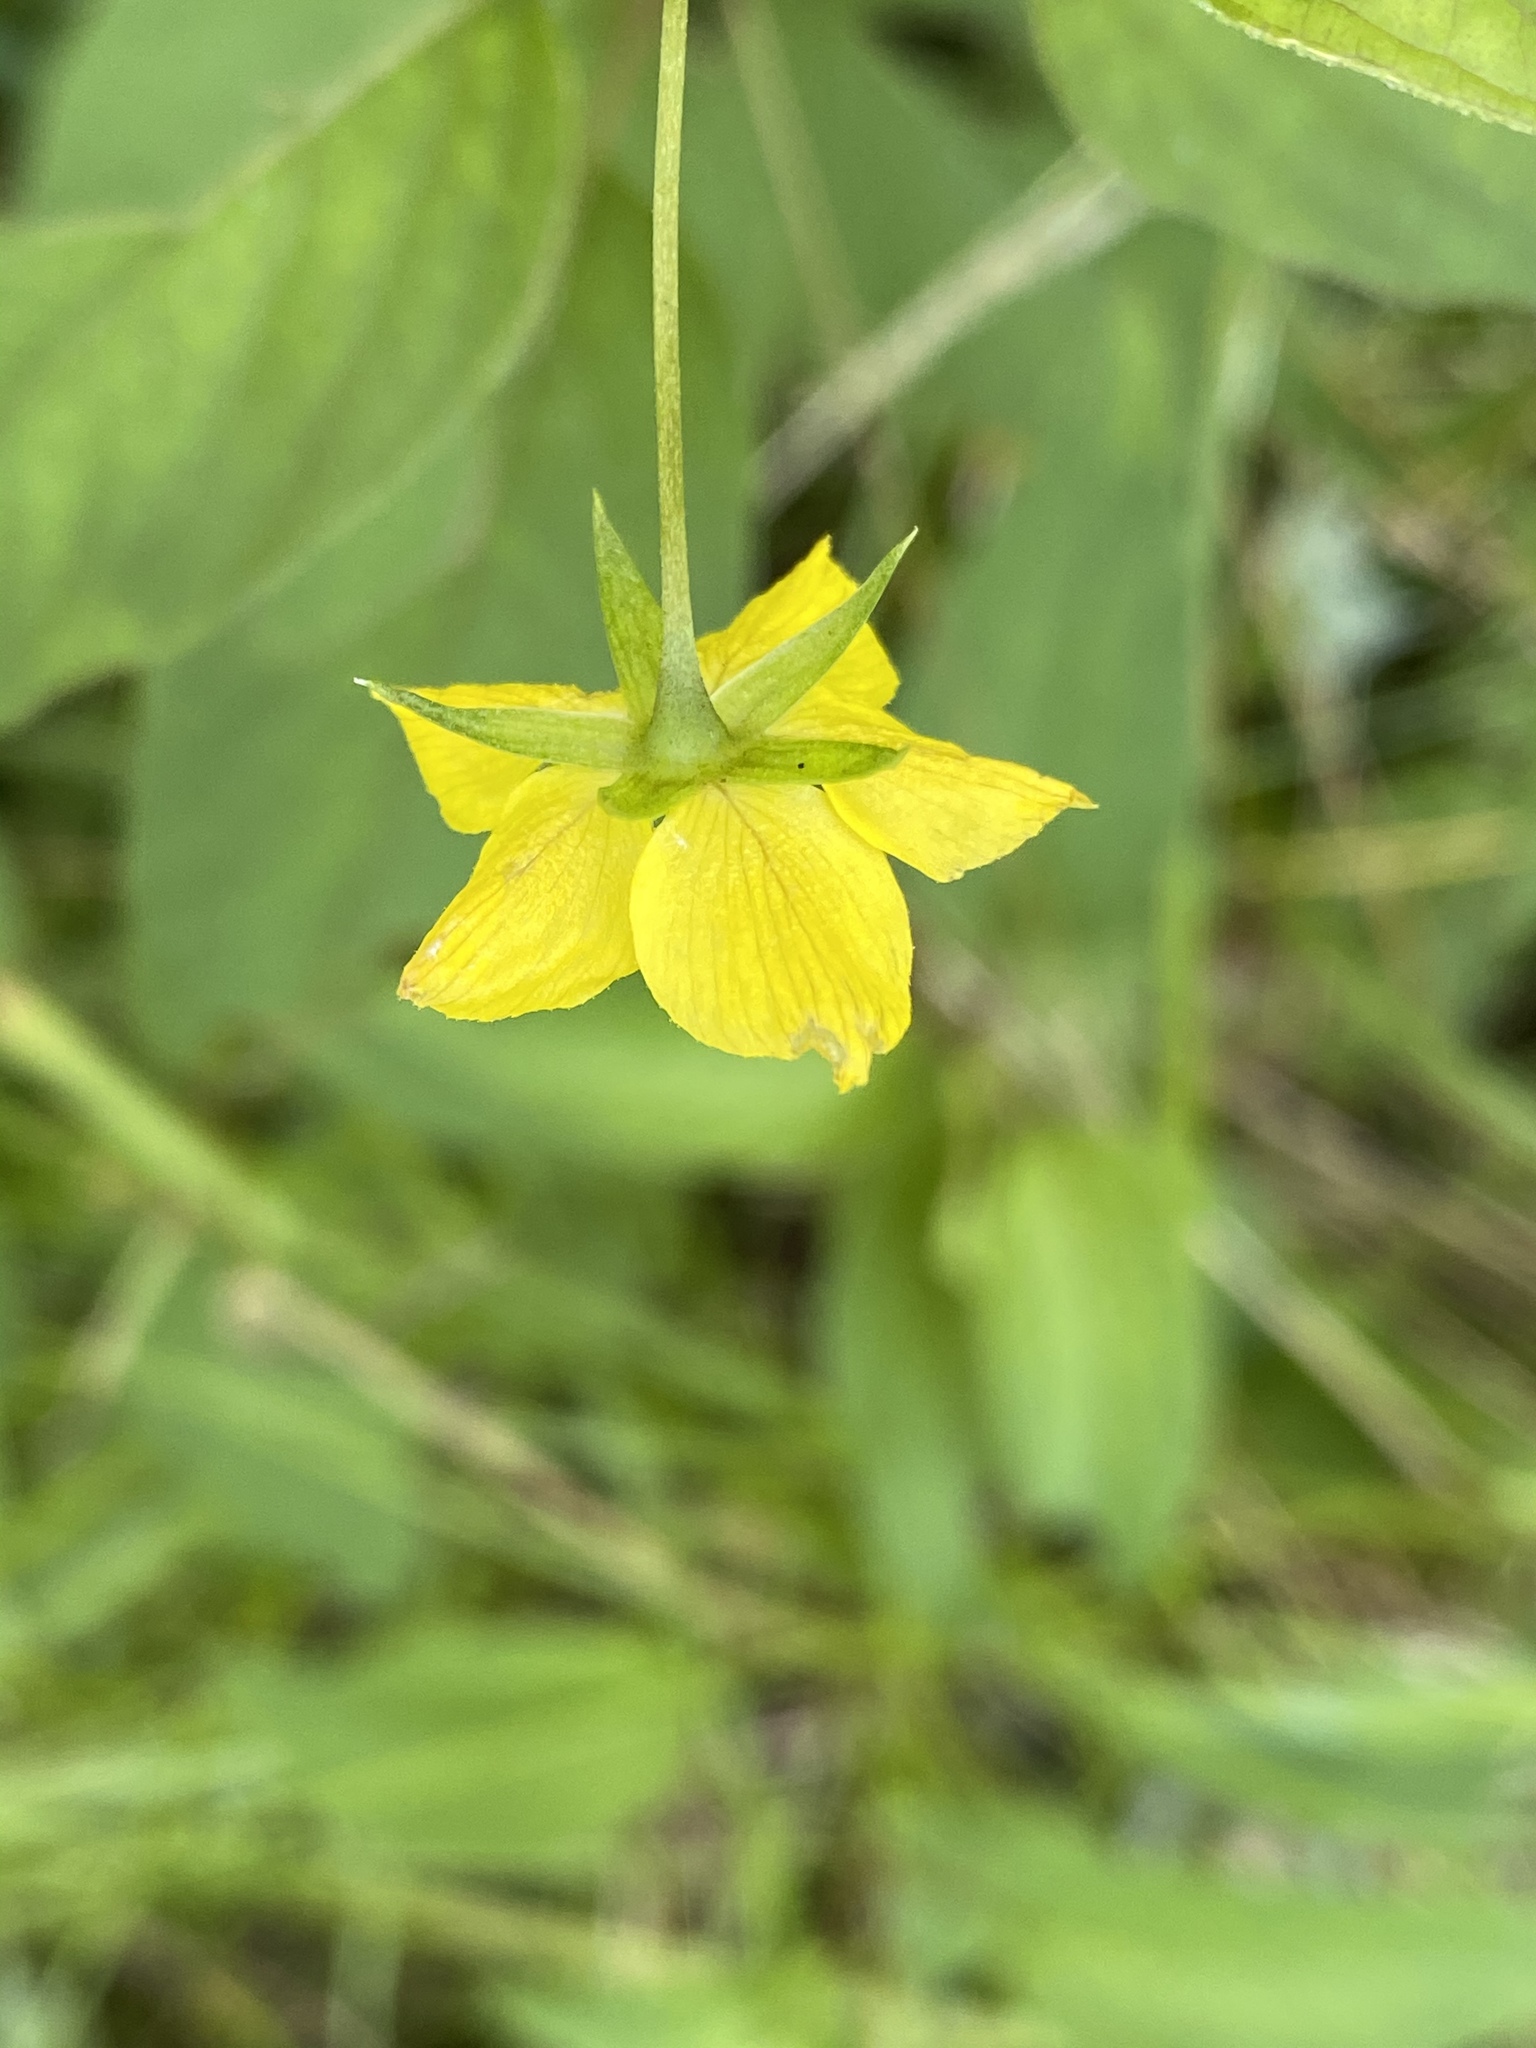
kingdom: Plantae
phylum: Tracheophyta
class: Magnoliopsida
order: Ericales
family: Primulaceae
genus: Lysimachia
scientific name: Lysimachia ciliata
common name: Fringed loosestrife
